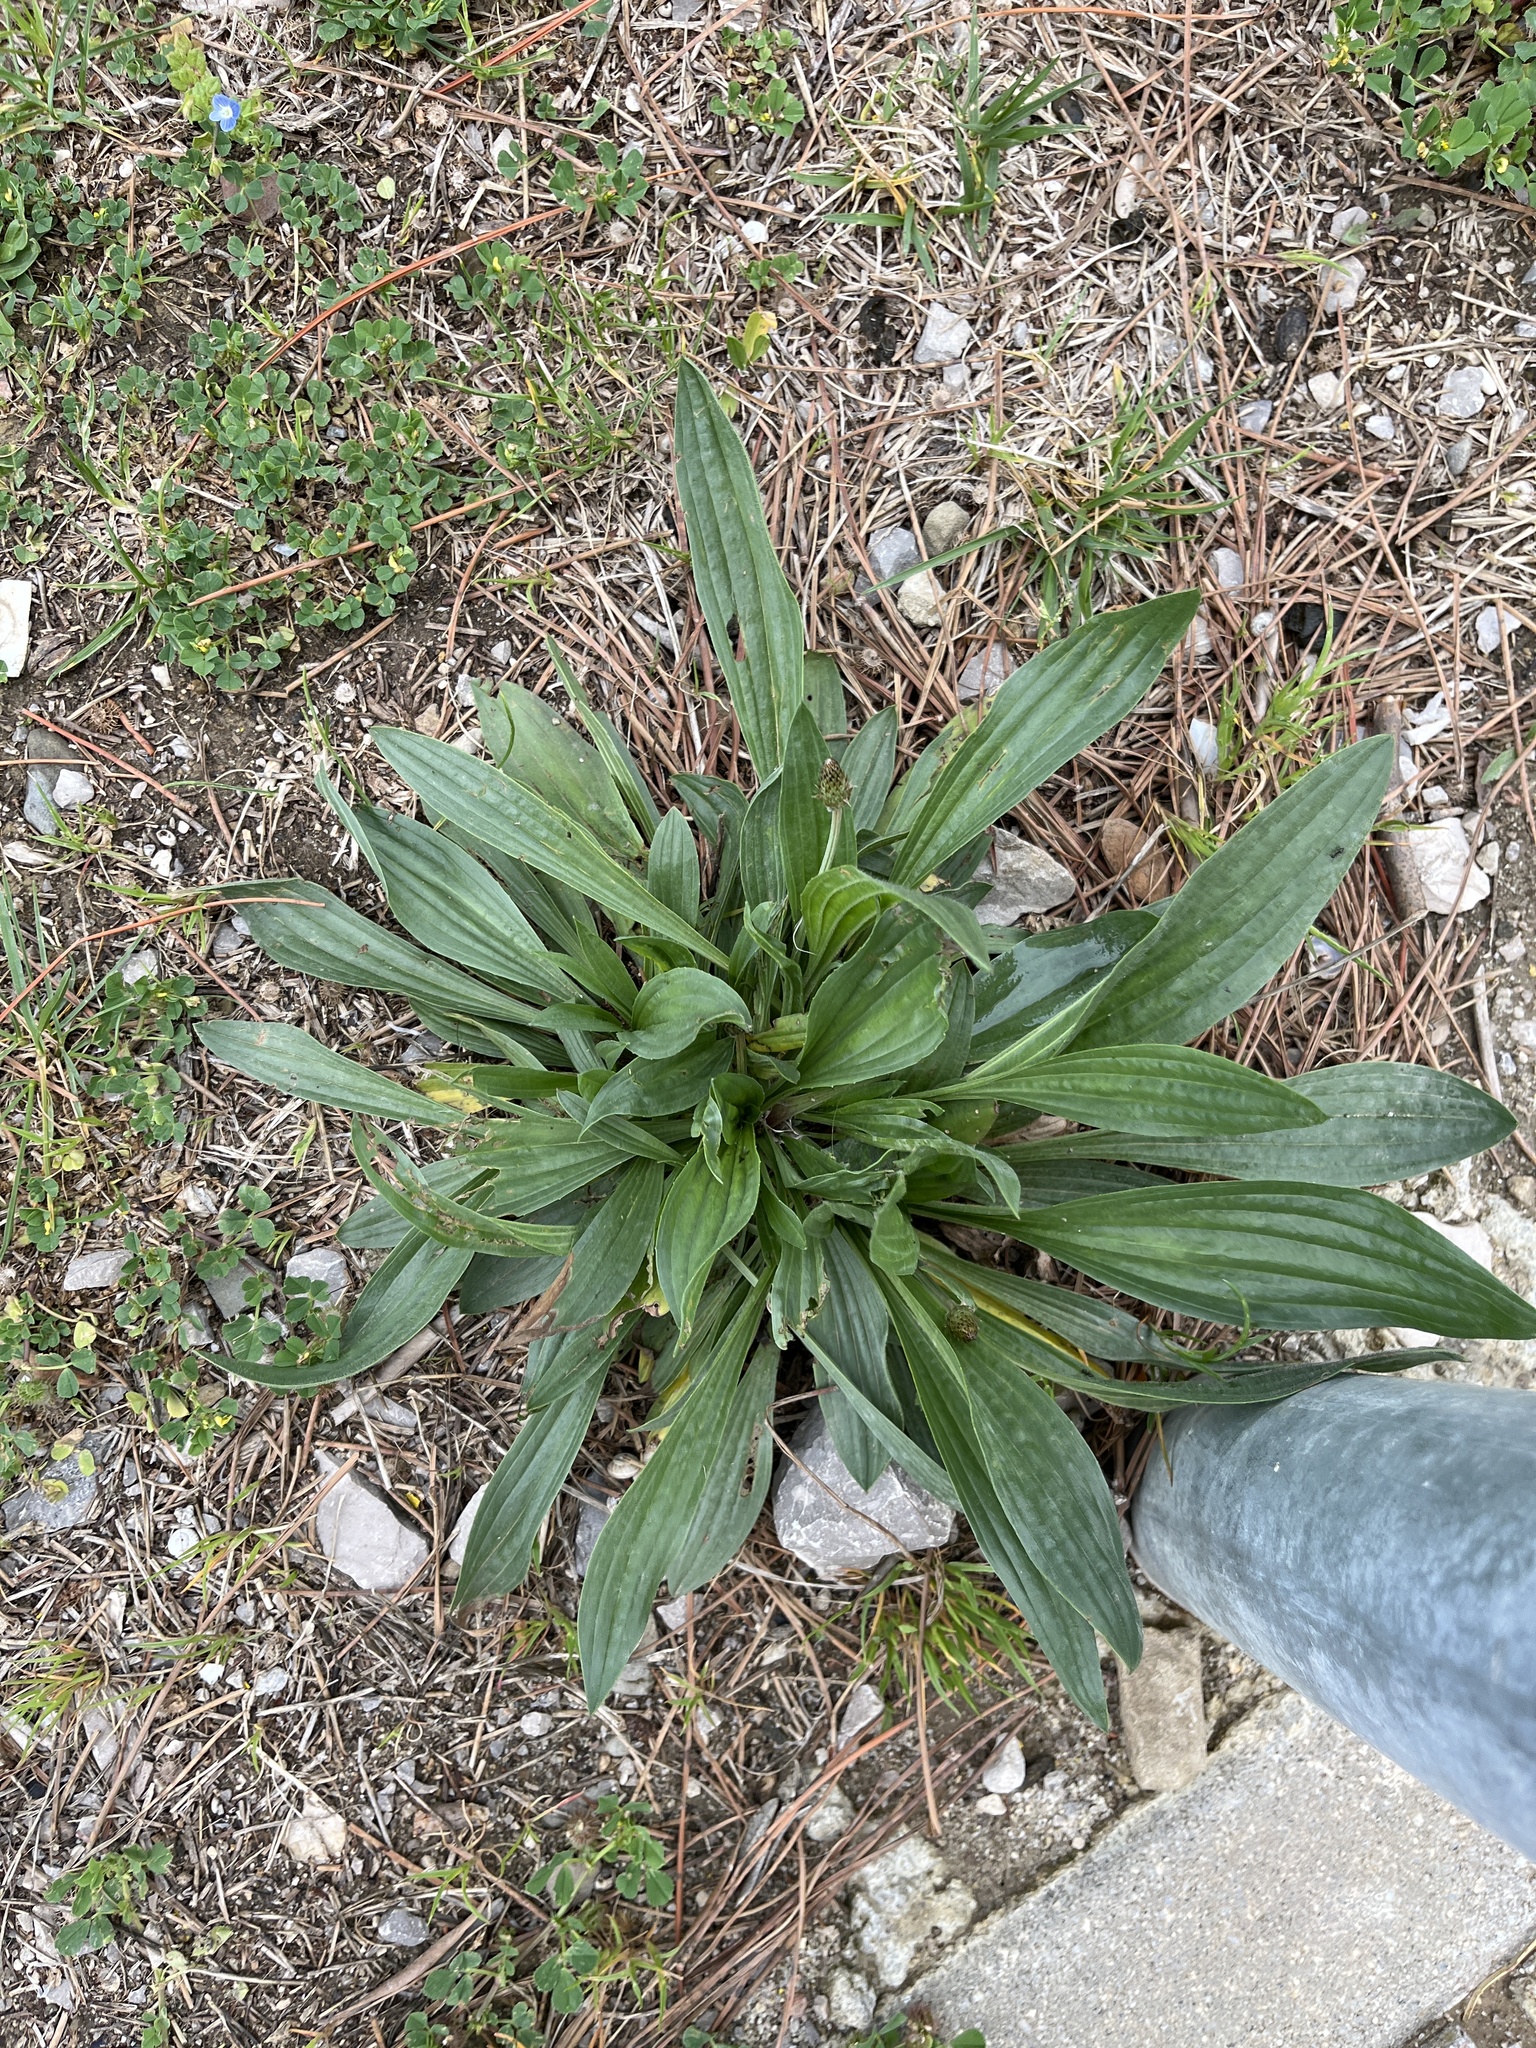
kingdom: Plantae
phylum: Tracheophyta
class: Magnoliopsida
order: Lamiales
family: Plantaginaceae
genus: Plantago
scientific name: Plantago lanceolata
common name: Ribwort plantain
